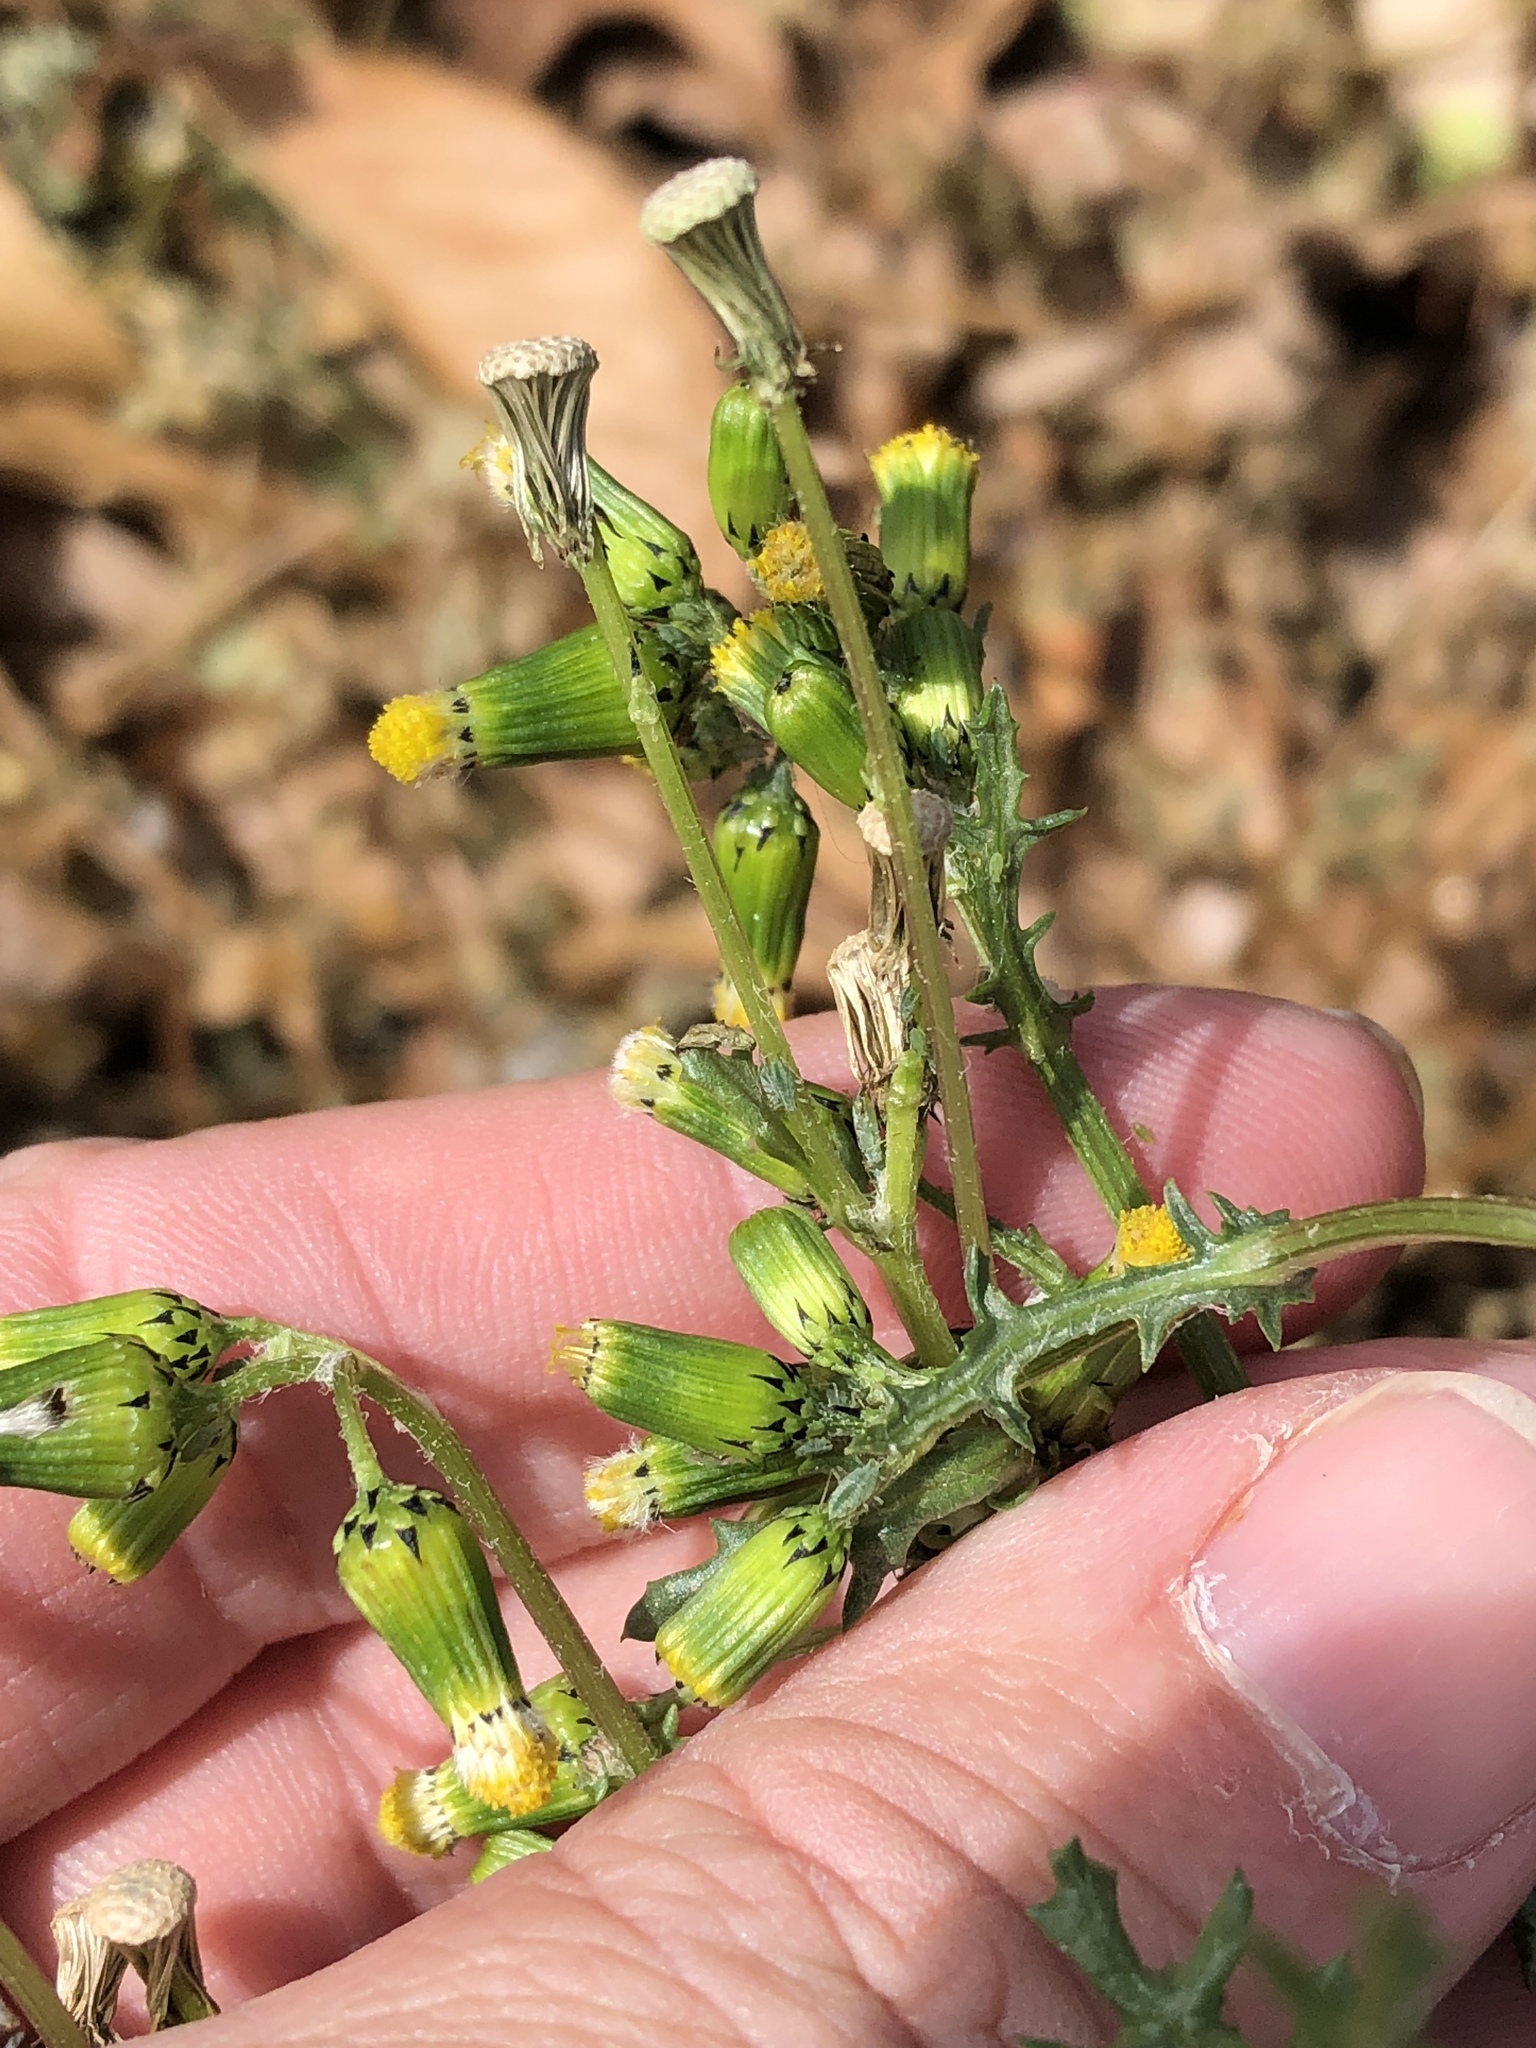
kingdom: Plantae
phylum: Tracheophyta
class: Magnoliopsida
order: Asterales
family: Asteraceae
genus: Senecio
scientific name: Senecio vulgaris
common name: Old-man-in-the-spring
